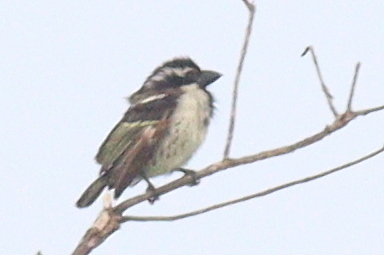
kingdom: Animalia
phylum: Chordata
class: Aves
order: Piciformes
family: Lybiidae
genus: Tricholaema
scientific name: Tricholaema lacrymosa
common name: Spot-flanked barbet
